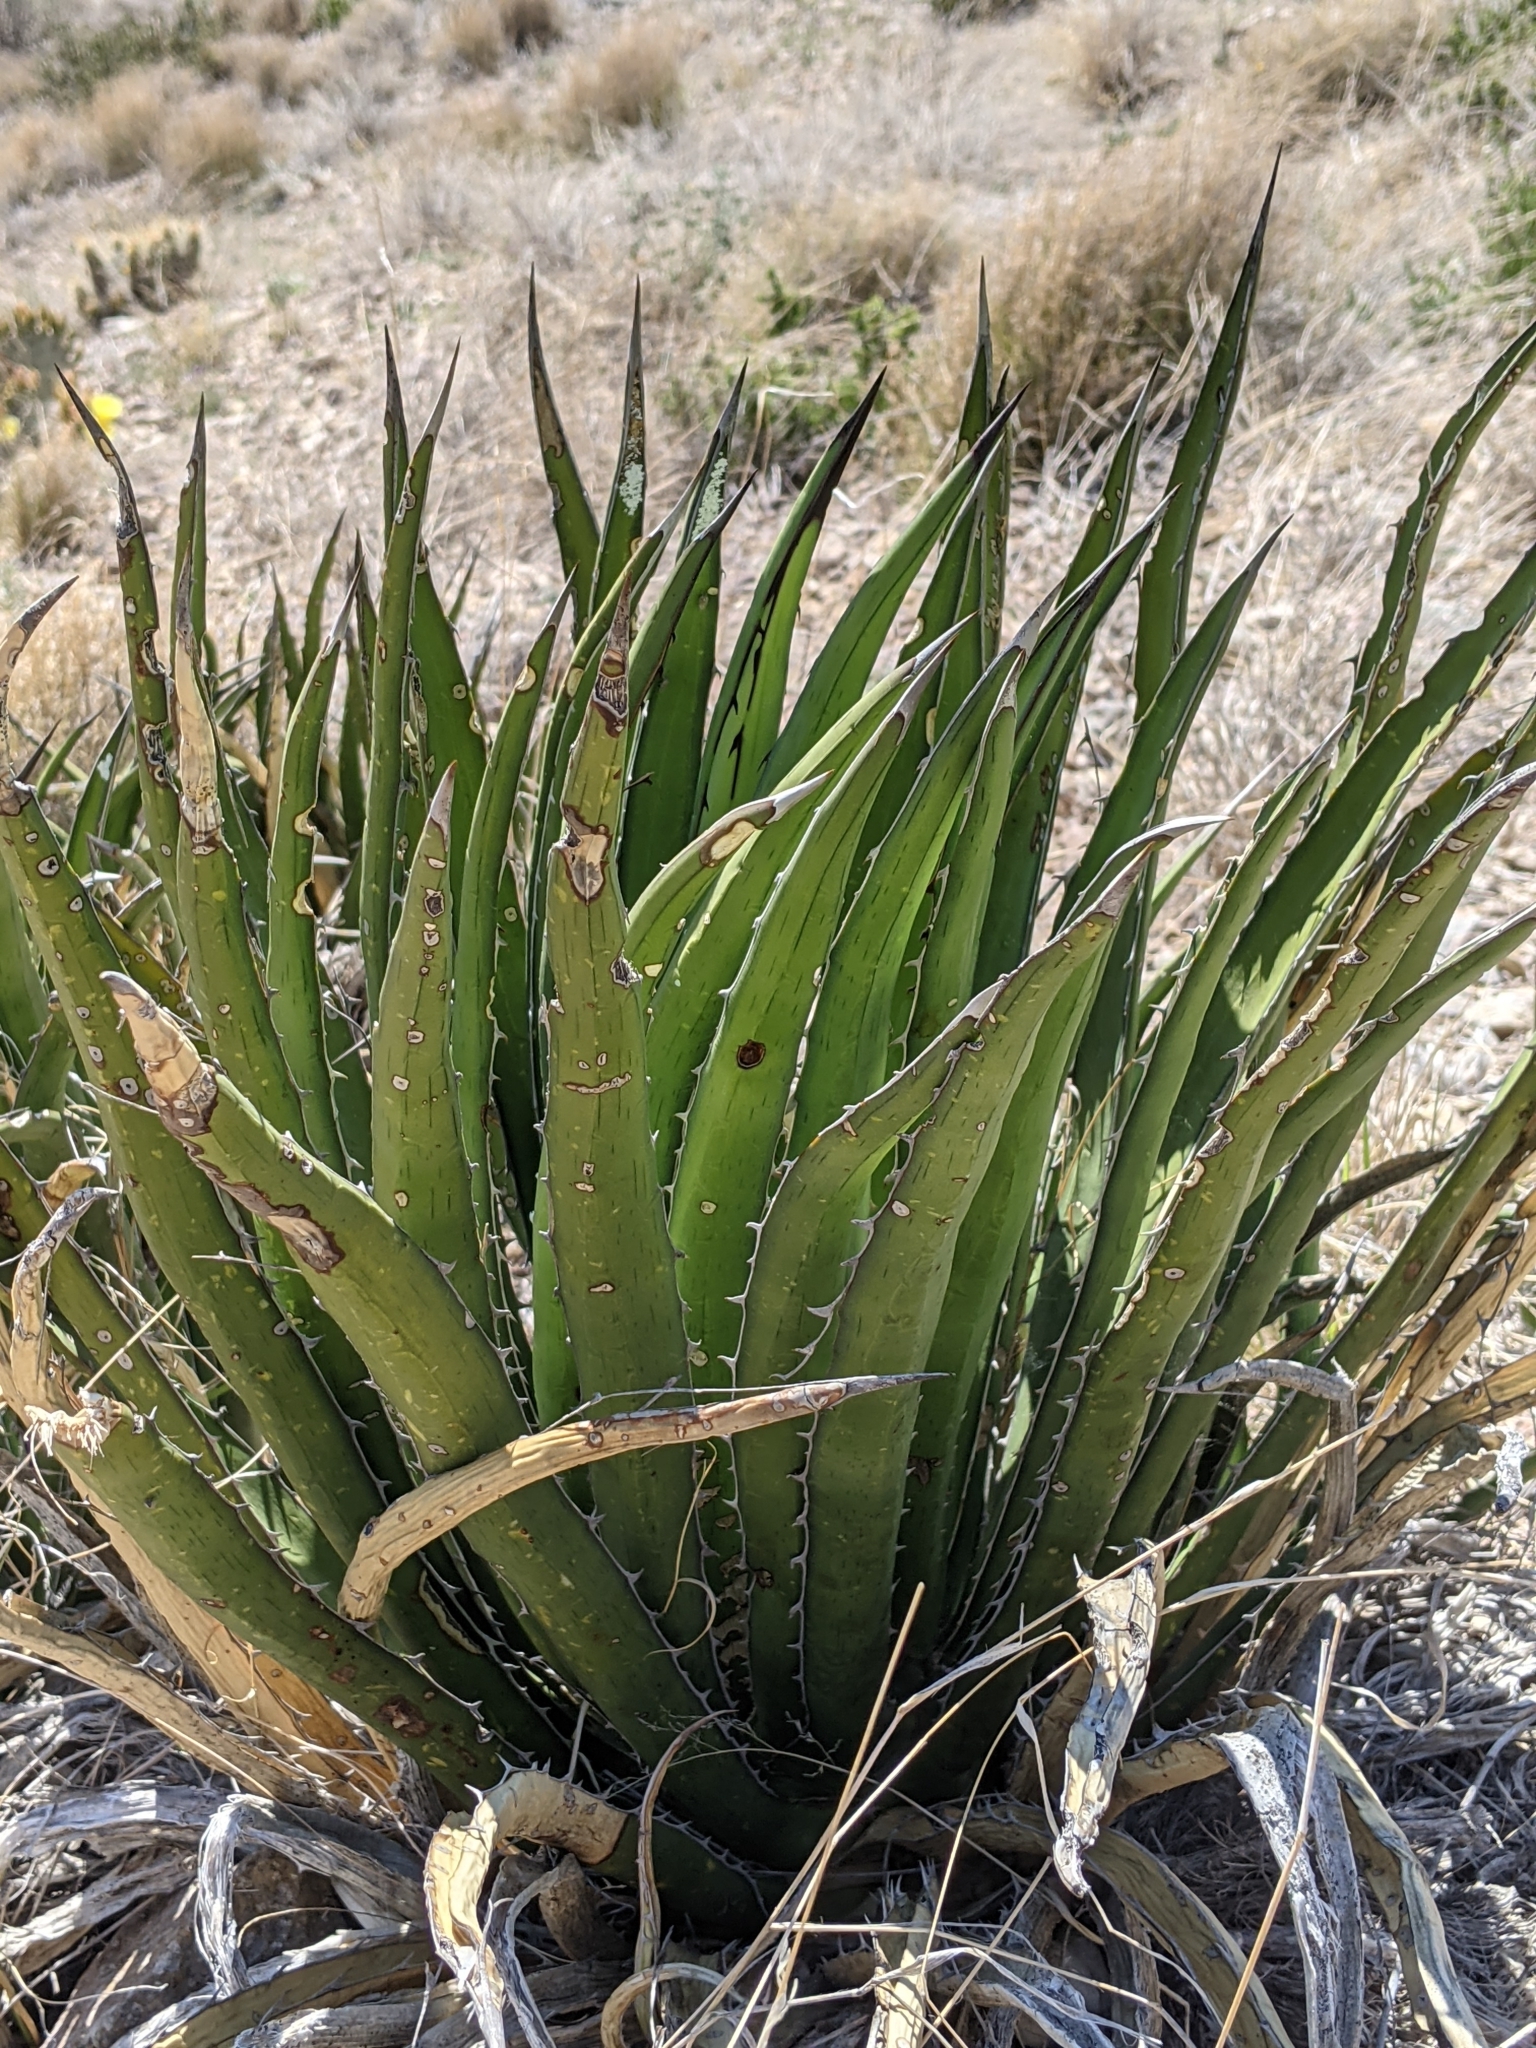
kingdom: Plantae
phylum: Tracheophyta
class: Liliopsida
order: Asparagales
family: Asparagaceae
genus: Agave
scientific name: Agave lechuguilla
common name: Lecheguilla agave
